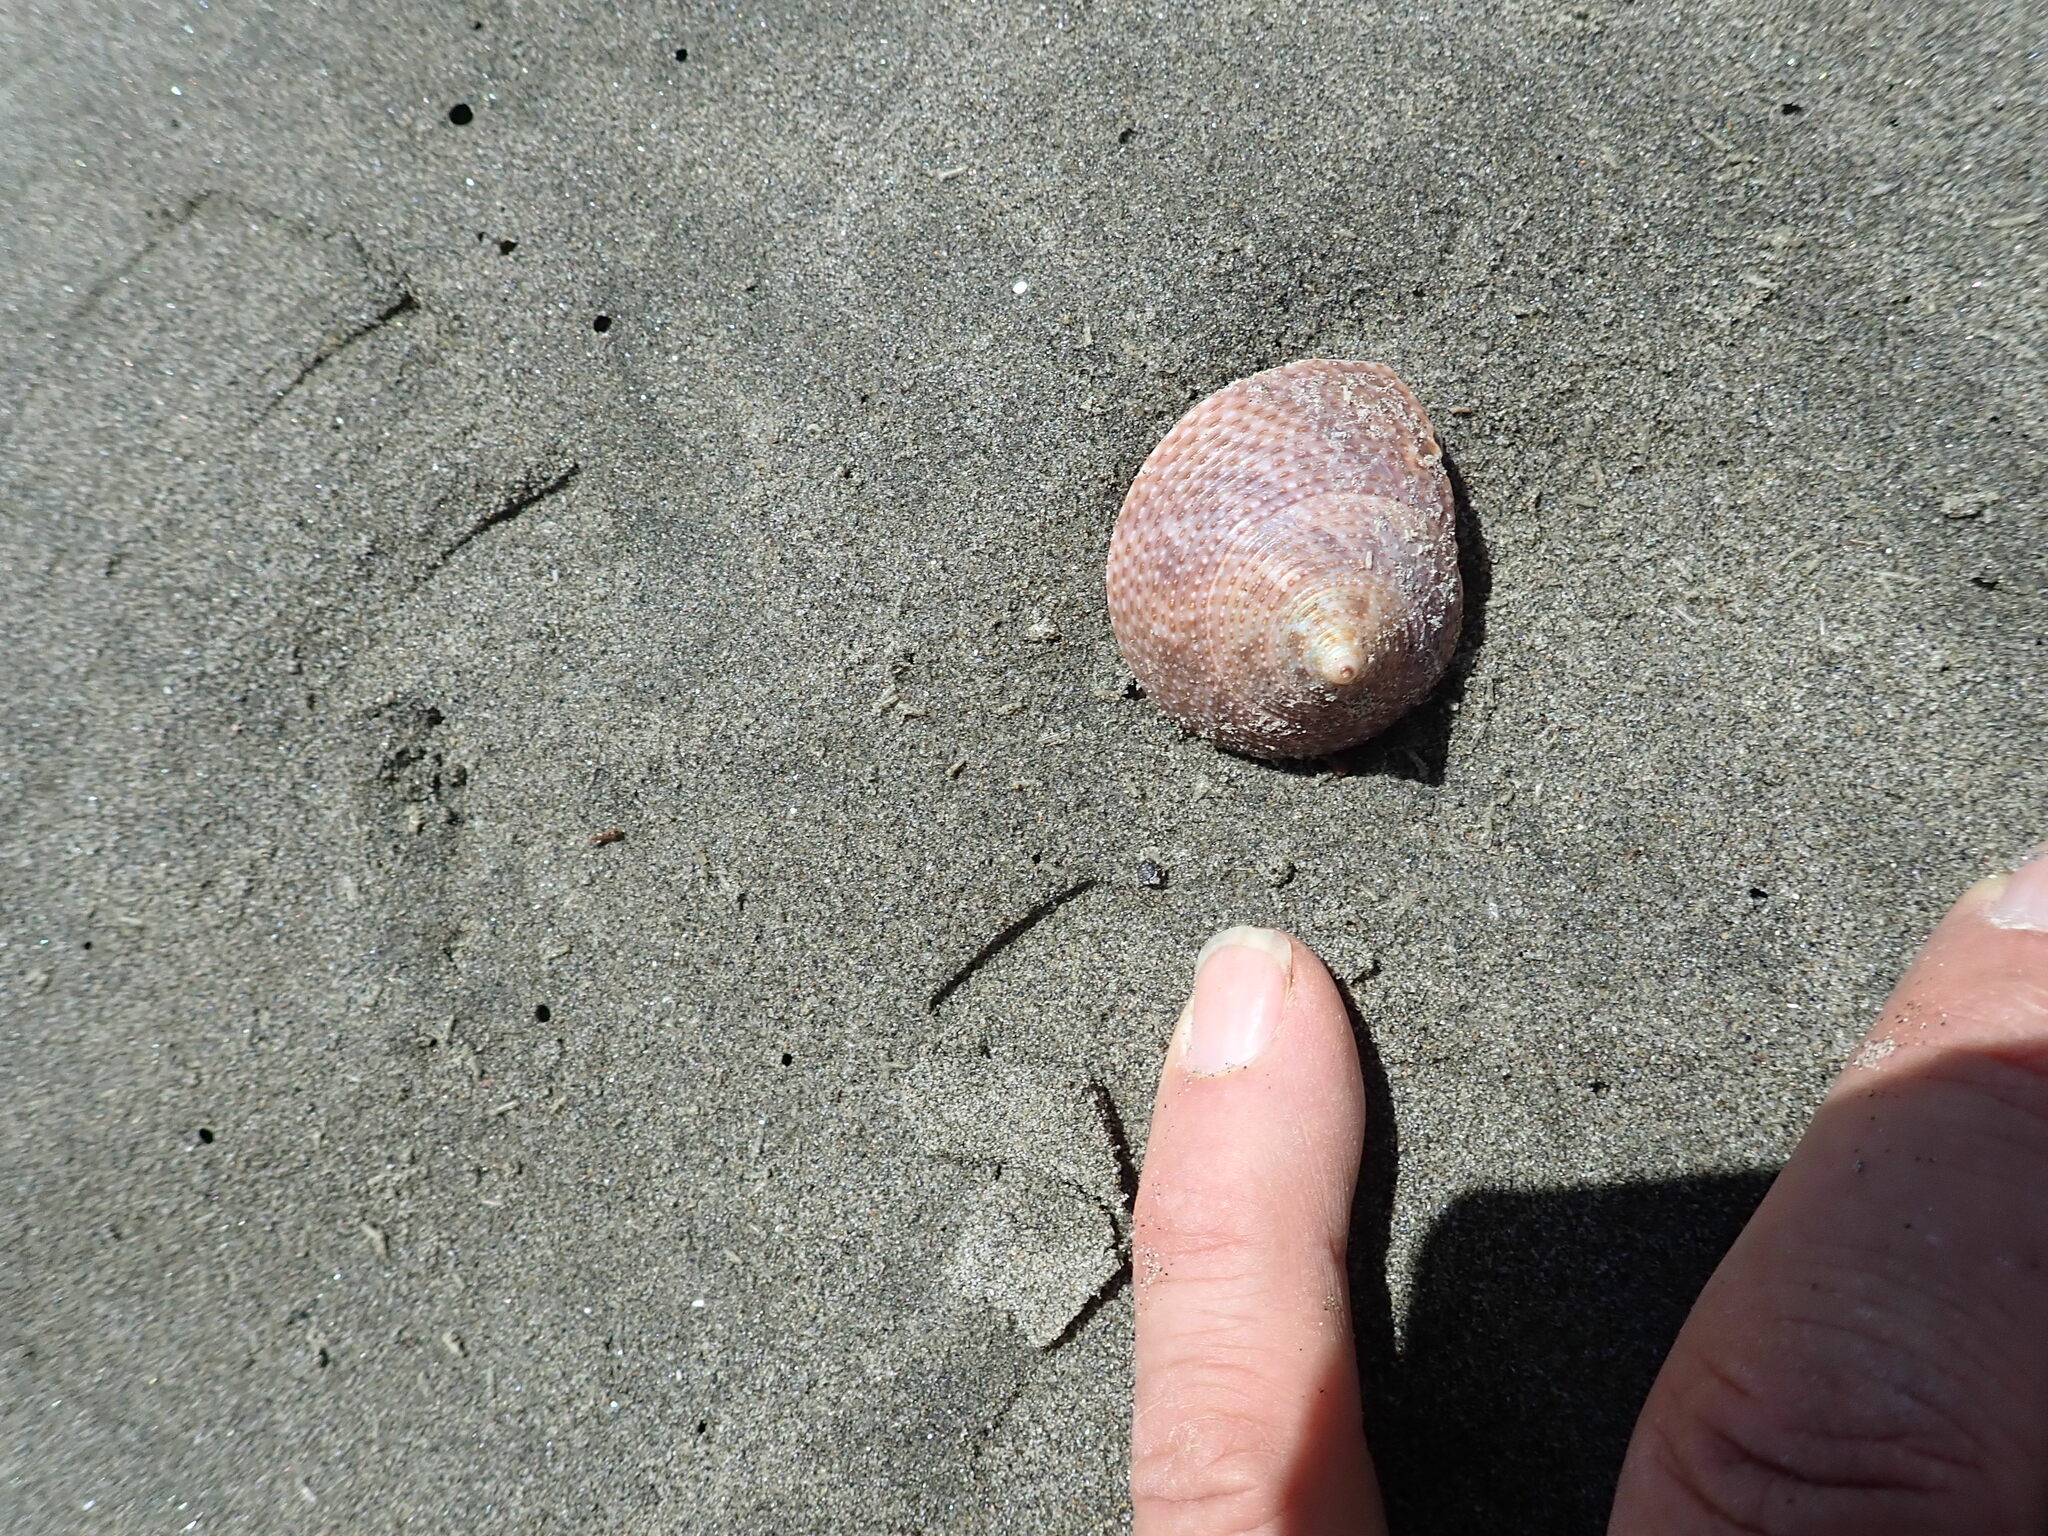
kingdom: Animalia
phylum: Mollusca
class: Gastropoda
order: Trochida
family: Calliostomatidae
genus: Maurea
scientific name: Maurea selecta
